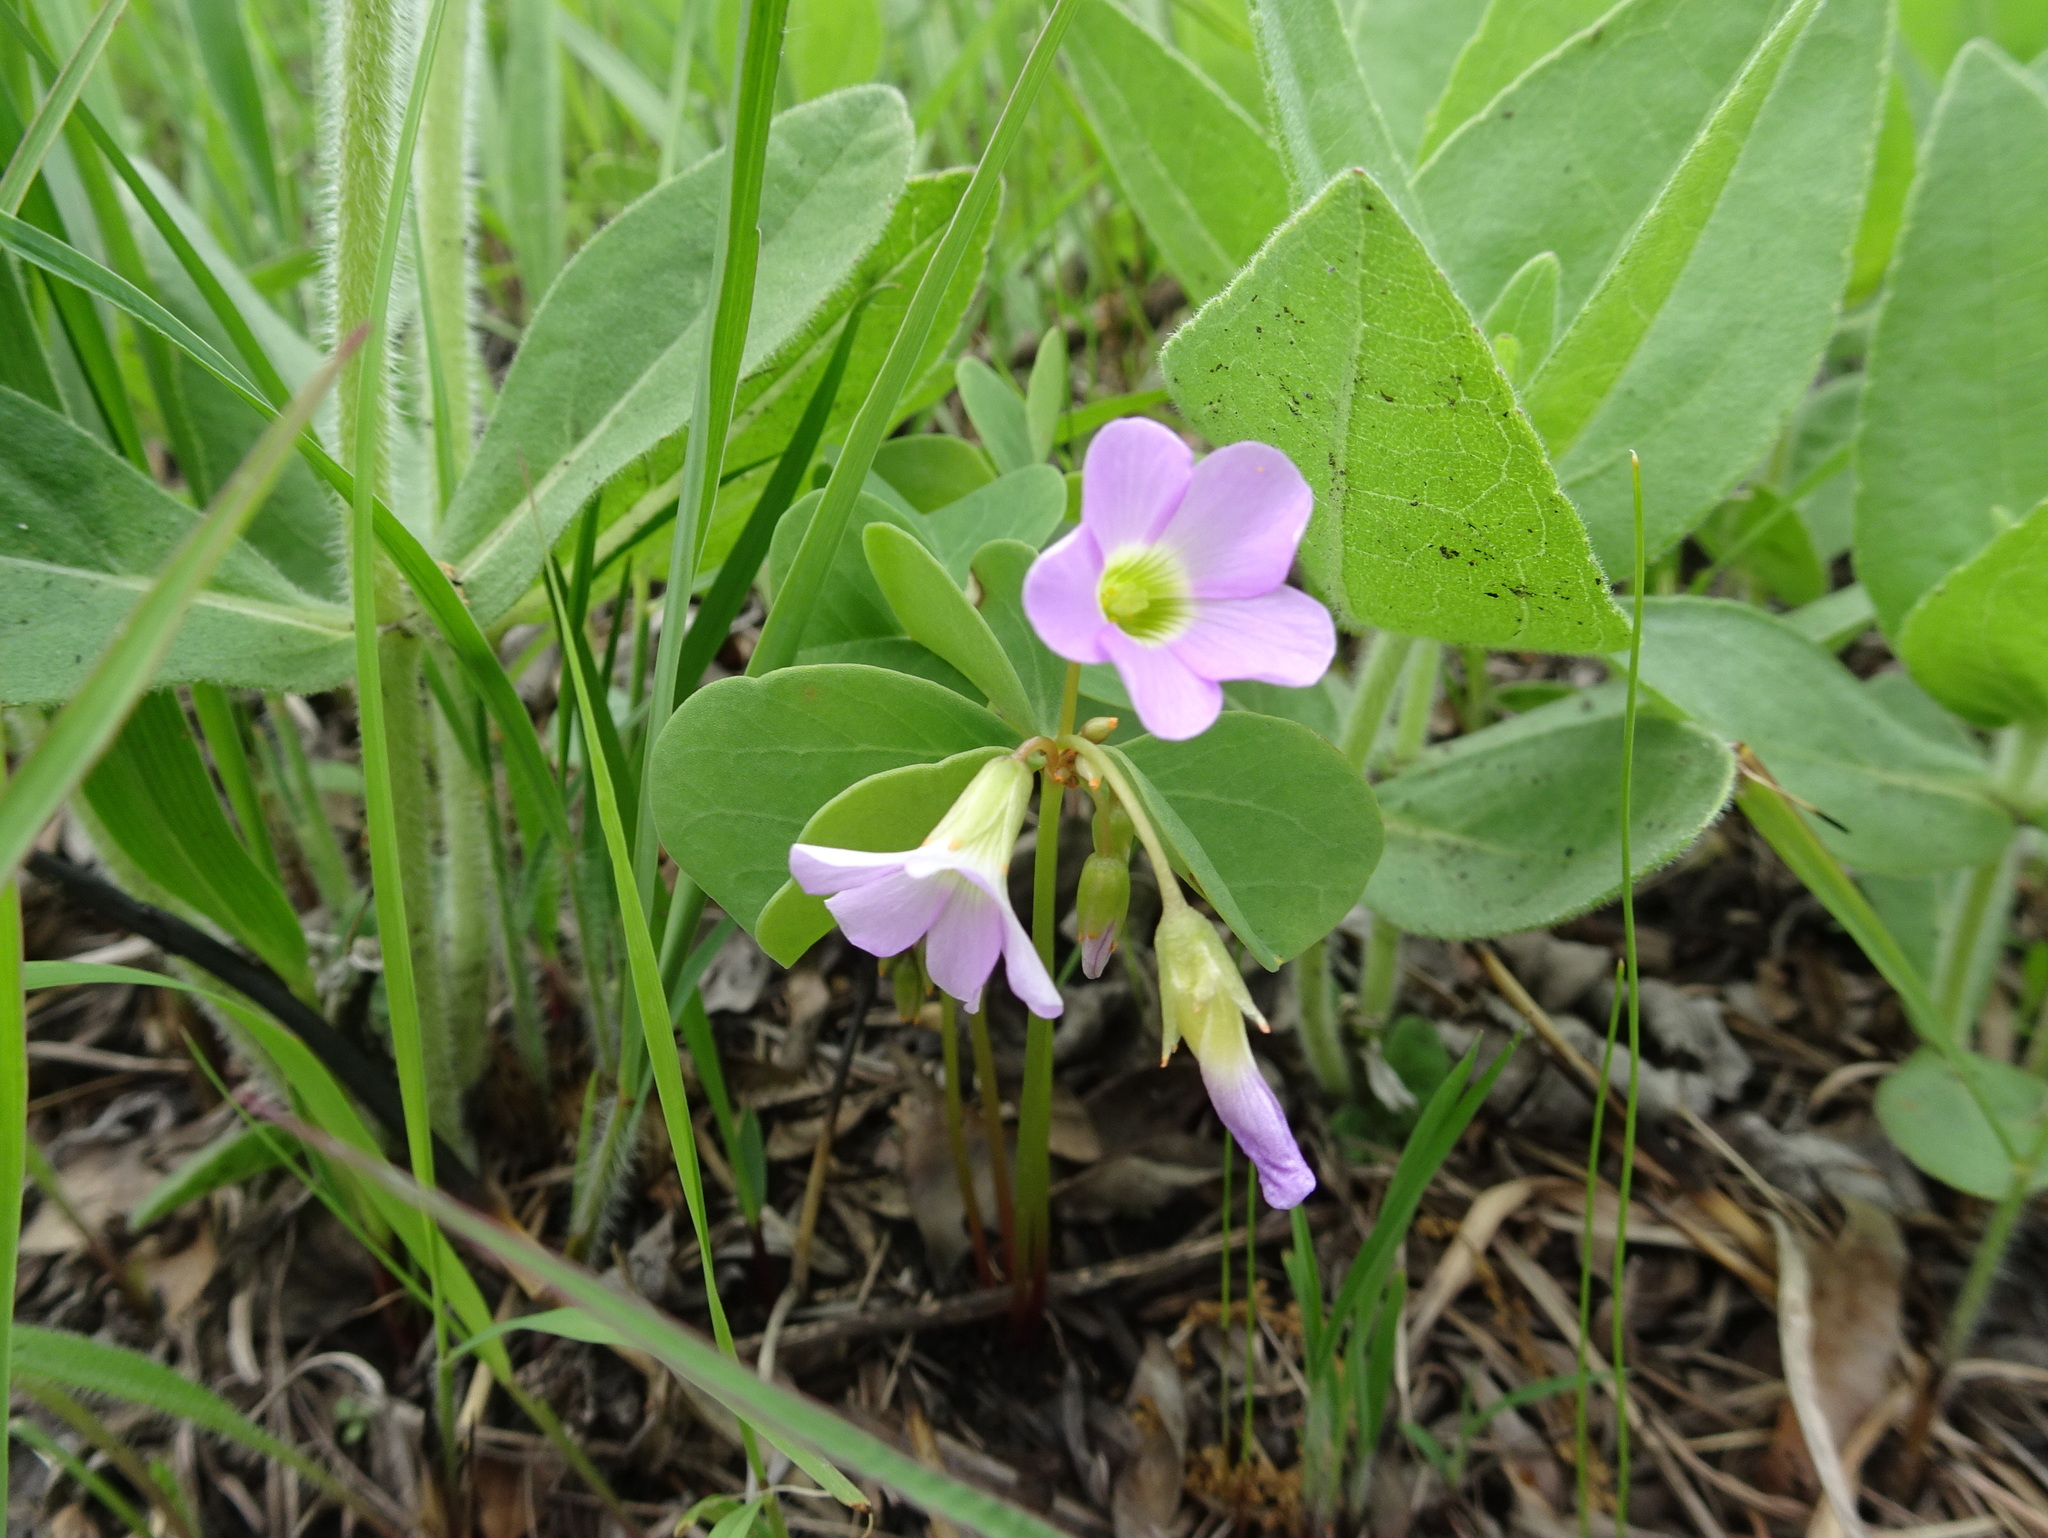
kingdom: Plantae
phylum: Tracheophyta
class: Magnoliopsida
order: Oxalidales
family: Oxalidaceae
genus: Oxalis
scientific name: Oxalis violacea
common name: Violet wood-sorrel
